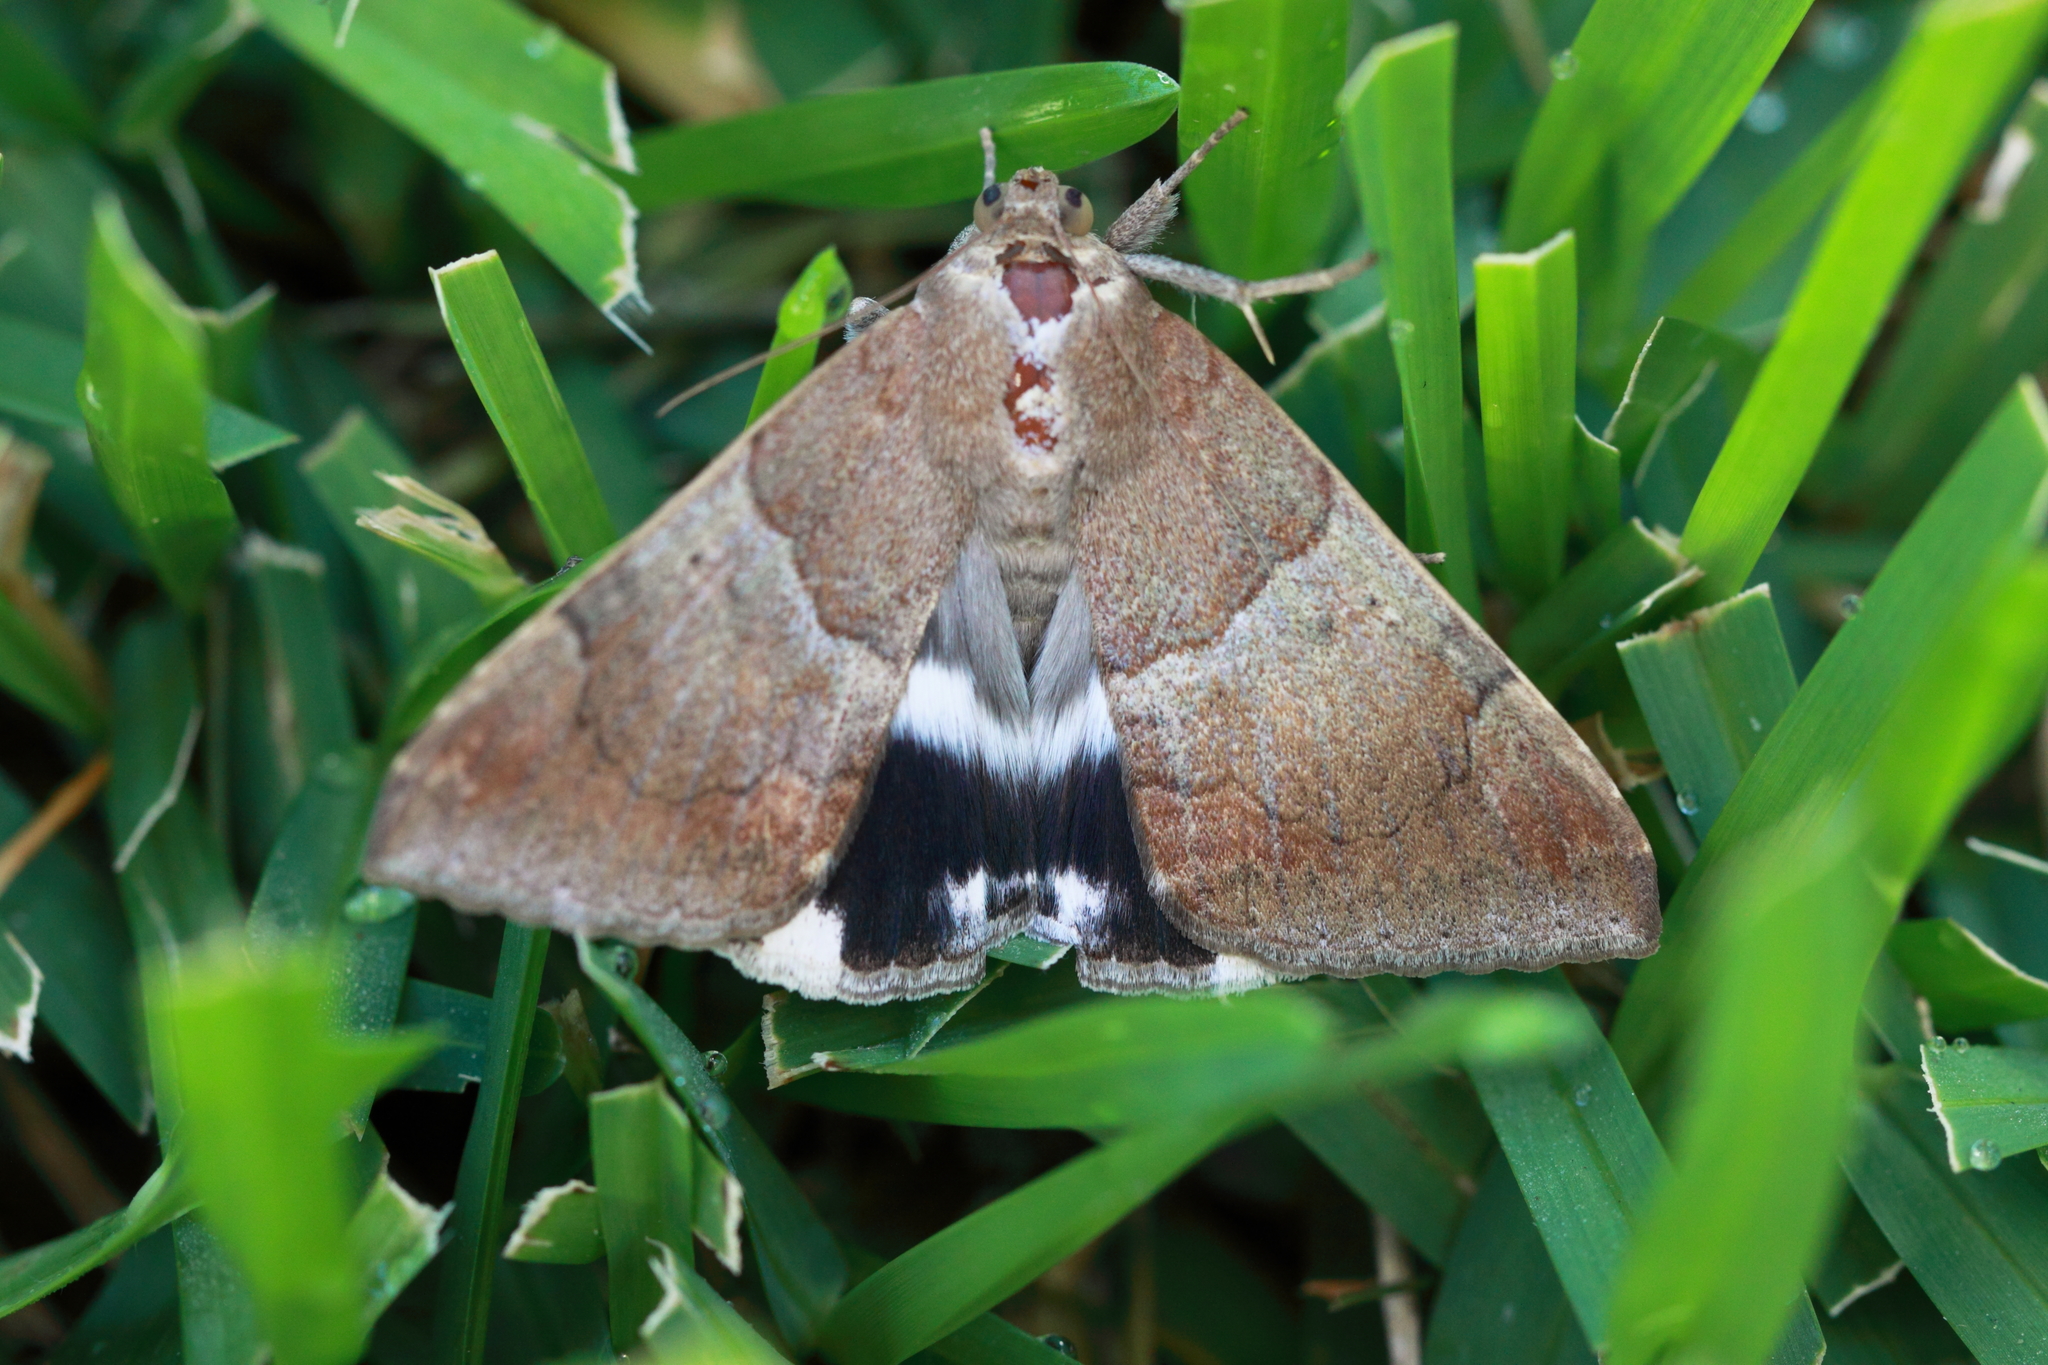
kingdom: Animalia
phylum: Arthropoda
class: Insecta
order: Lepidoptera
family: Erebidae
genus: Achaea
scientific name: Achaea janata
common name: Croton caterpillar
